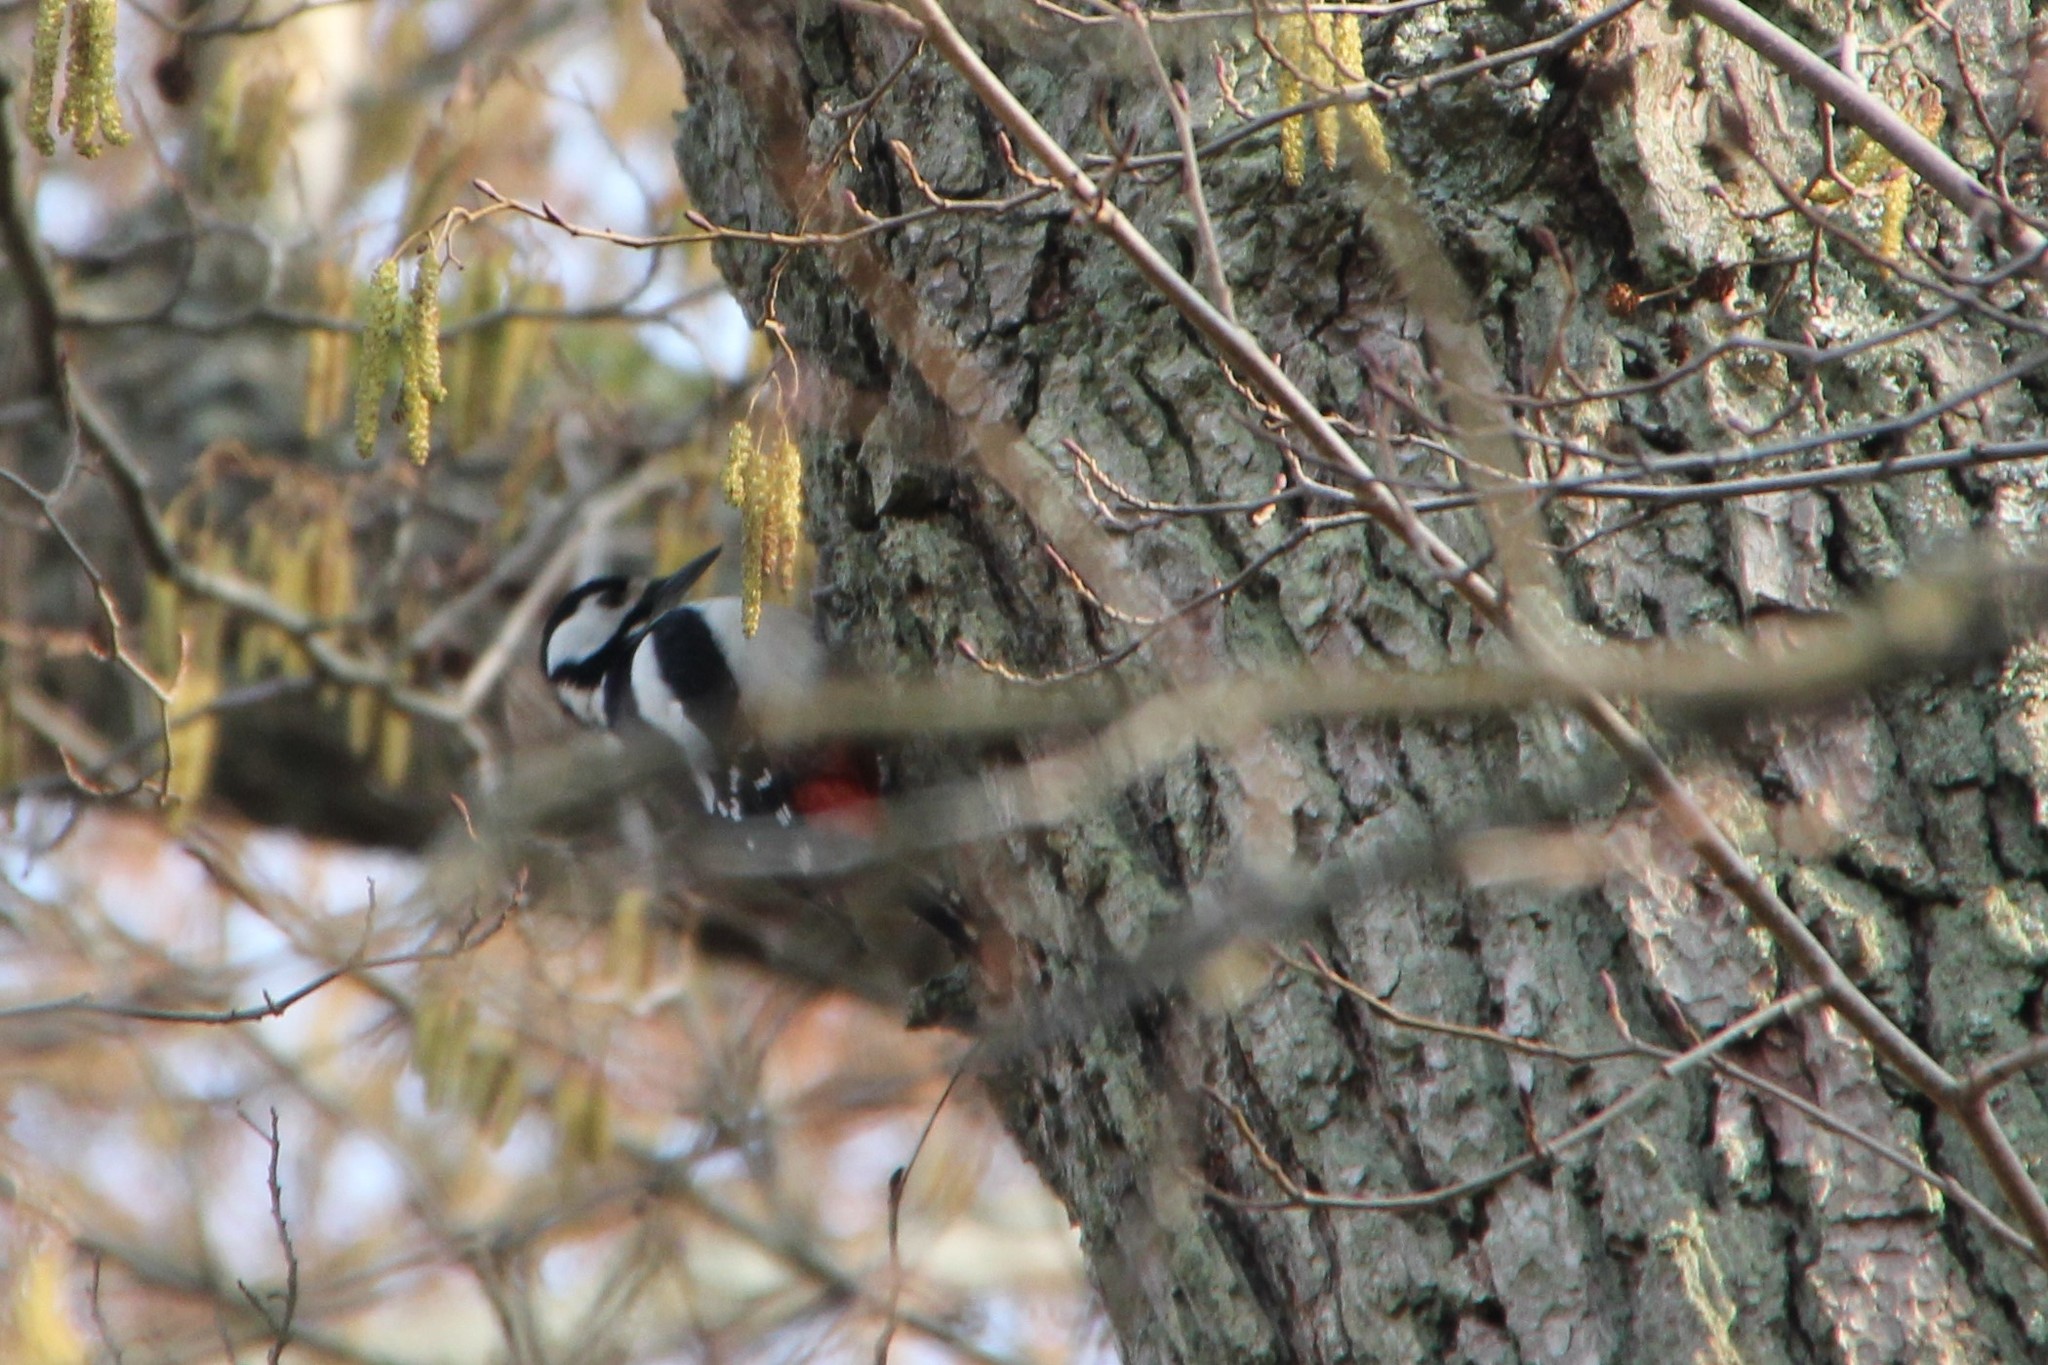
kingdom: Animalia
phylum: Chordata
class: Aves
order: Piciformes
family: Picidae
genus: Dendrocopos
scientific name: Dendrocopos major
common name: Great spotted woodpecker
